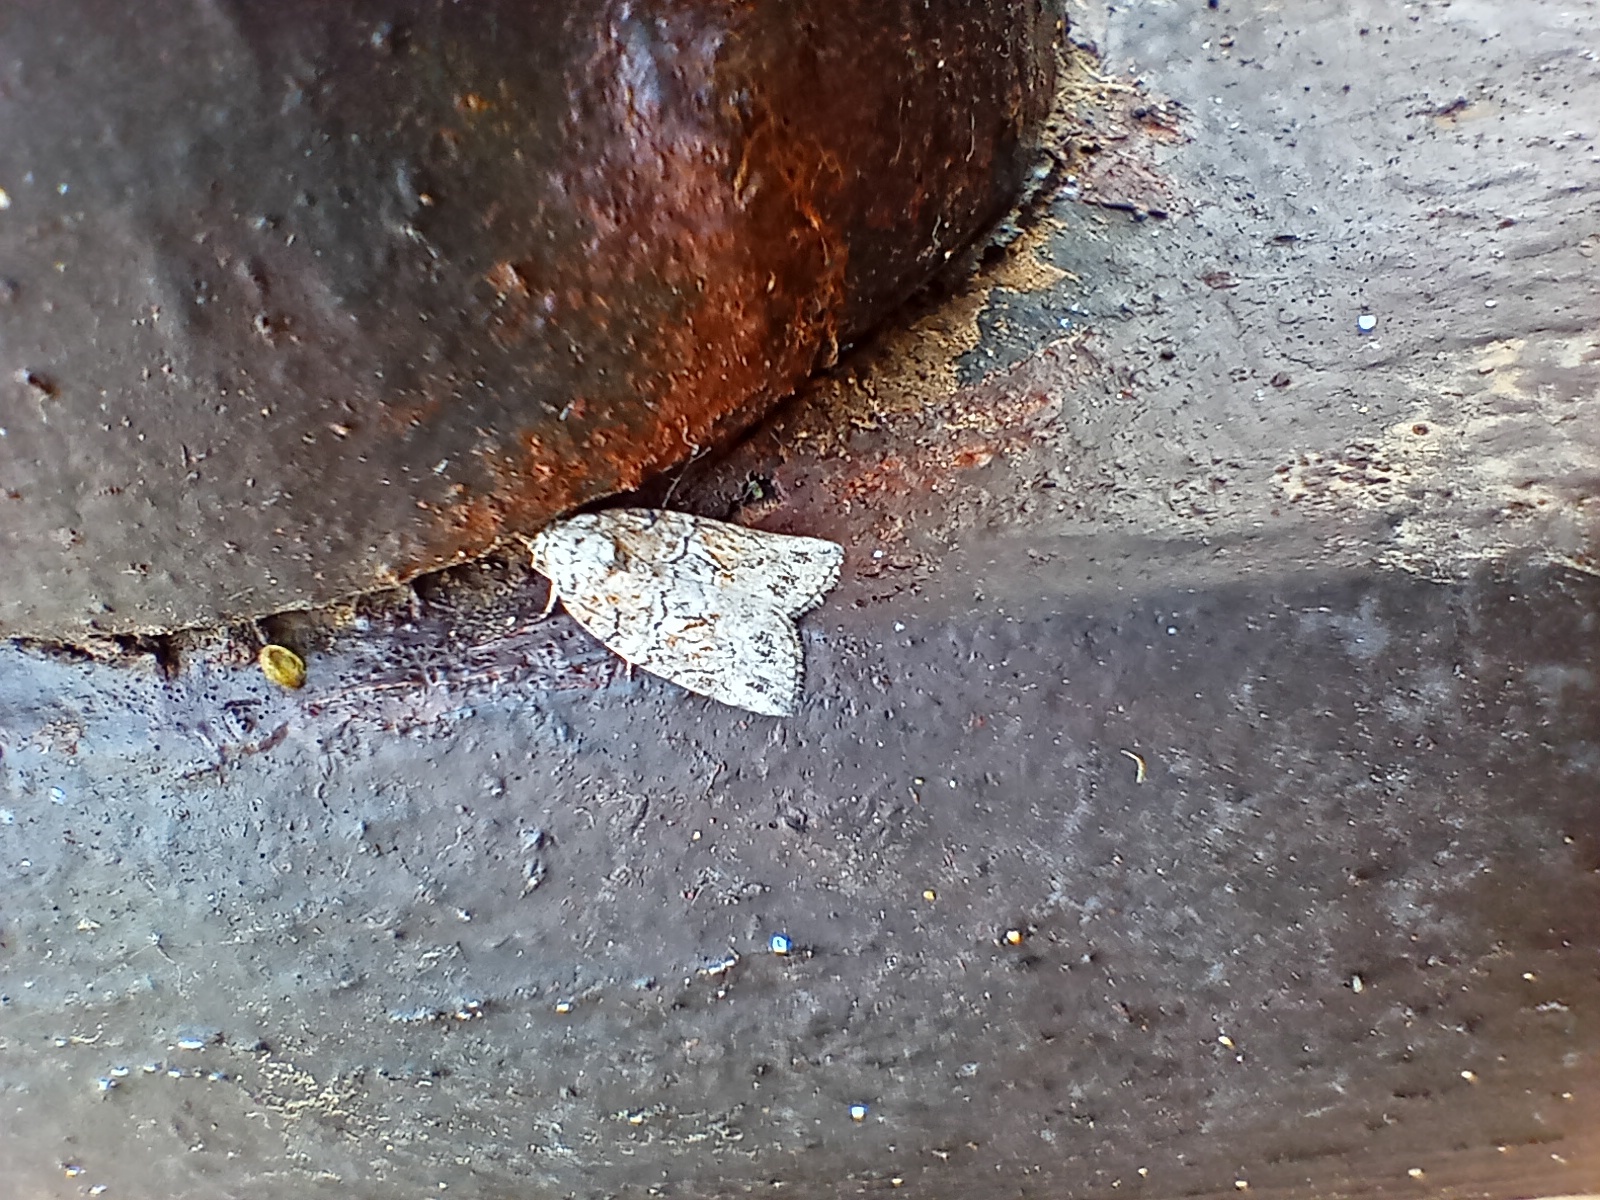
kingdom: Animalia
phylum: Arthropoda
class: Insecta
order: Lepidoptera
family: Nolidae
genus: Garella
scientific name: Garella nilotica
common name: Black-olive caterpillar moth
